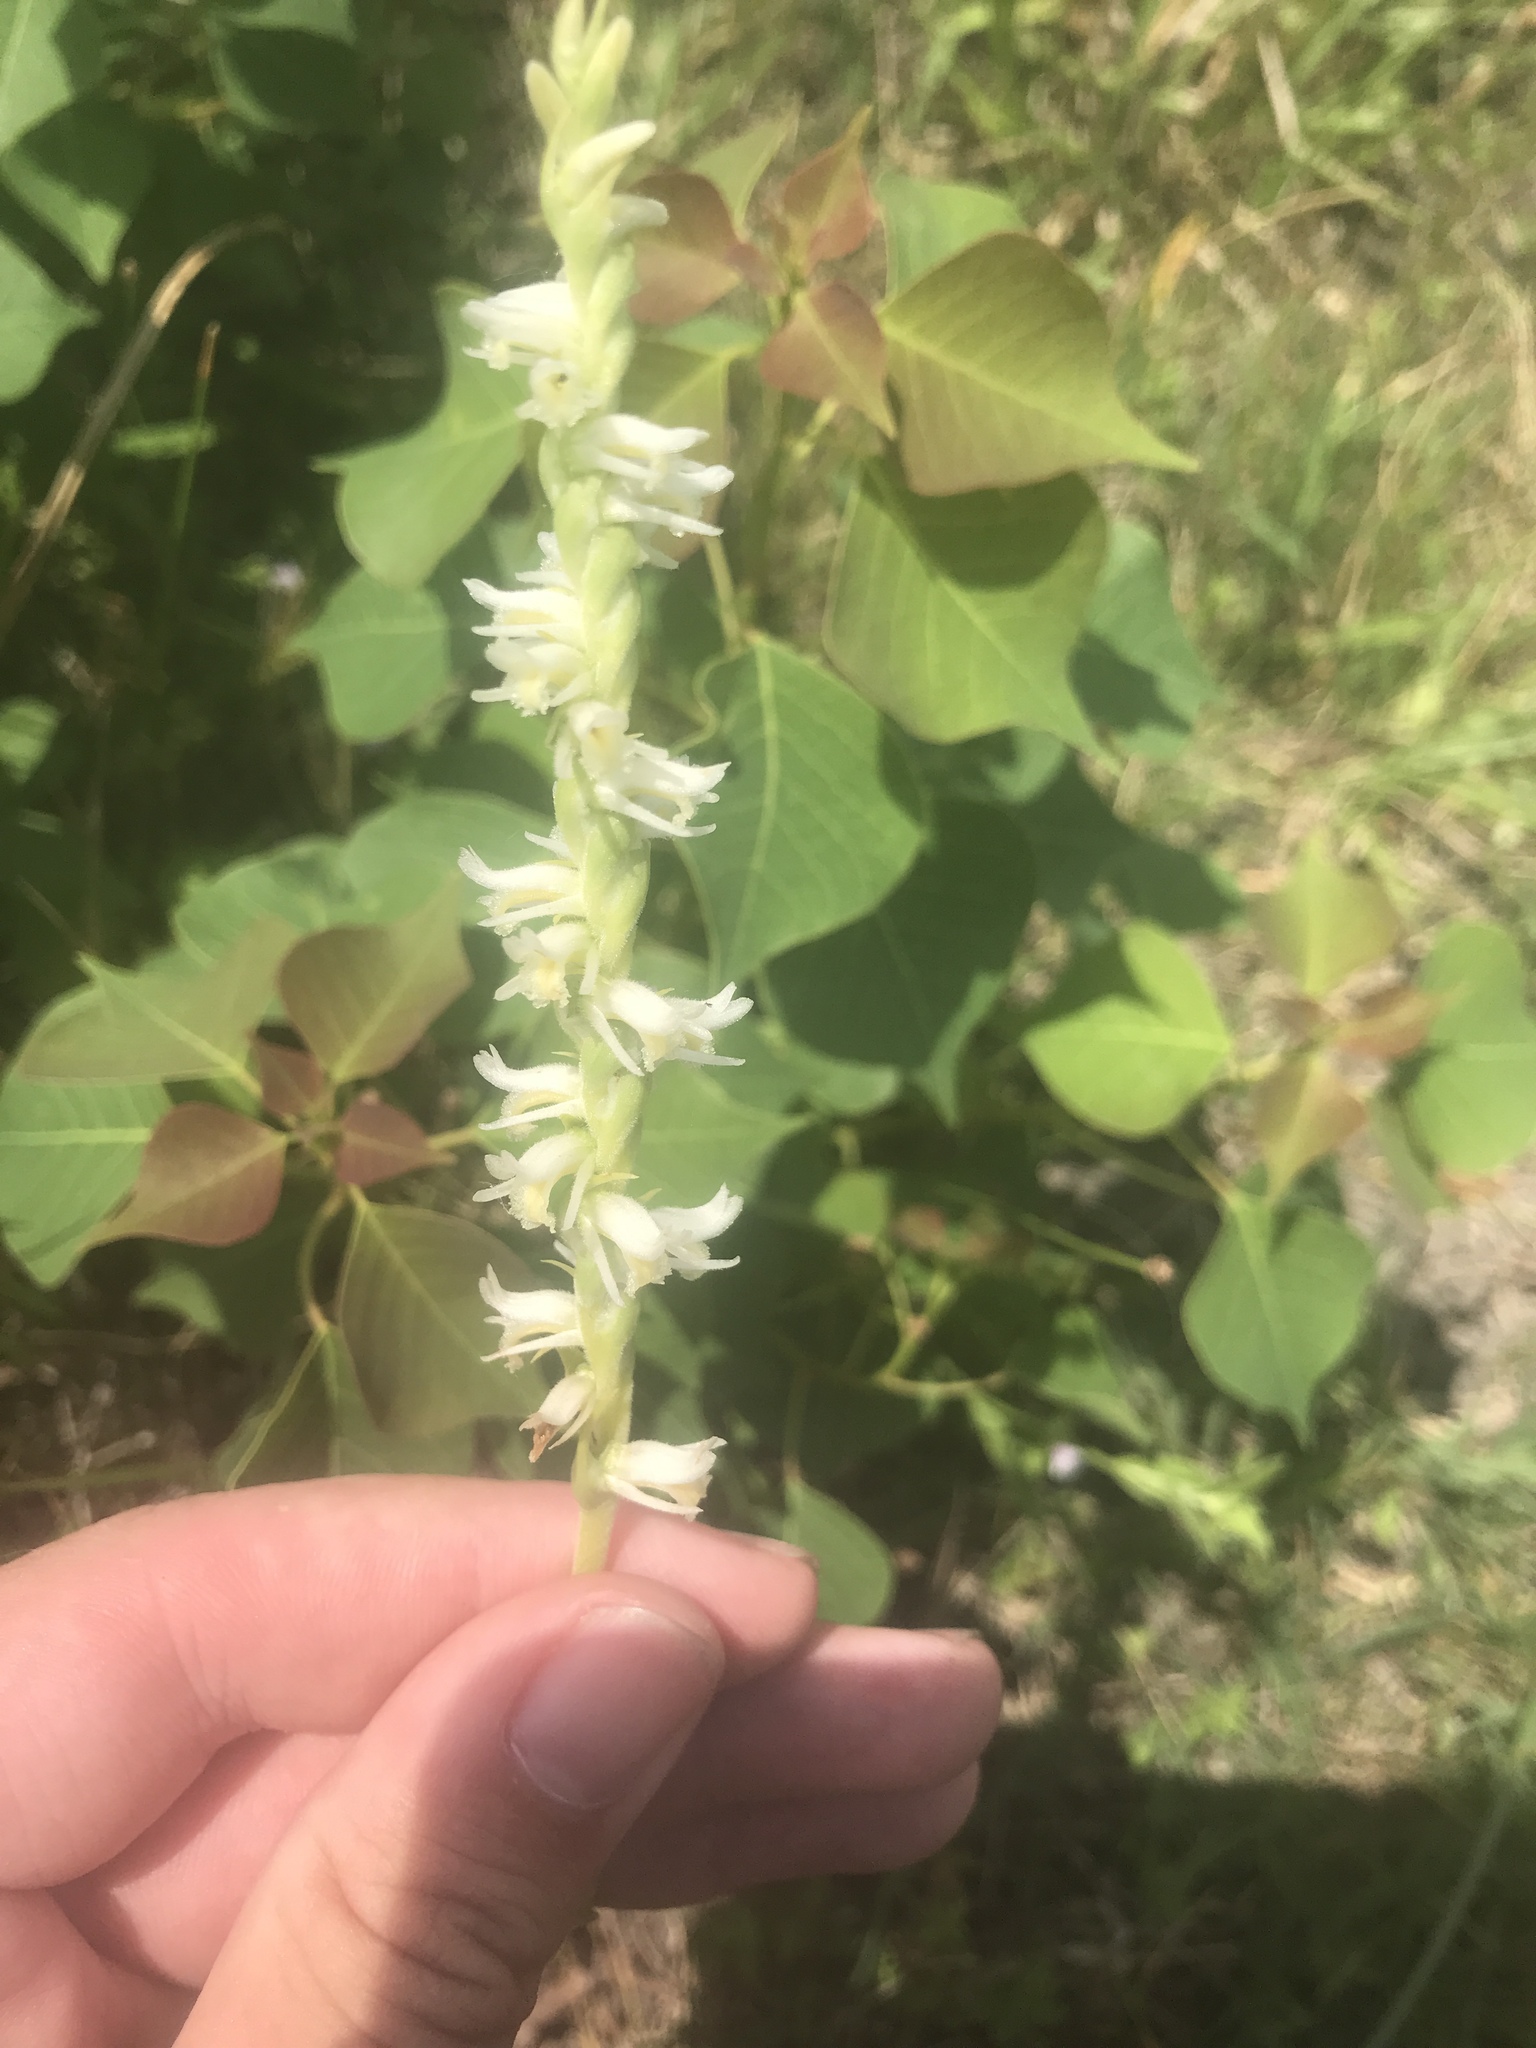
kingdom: Plantae
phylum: Tracheophyta
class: Liliopsida
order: Asparagales
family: Orchidaceae
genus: Spiranthes
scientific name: Spiranthes vernalis
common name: Spring ladies'-tresses
